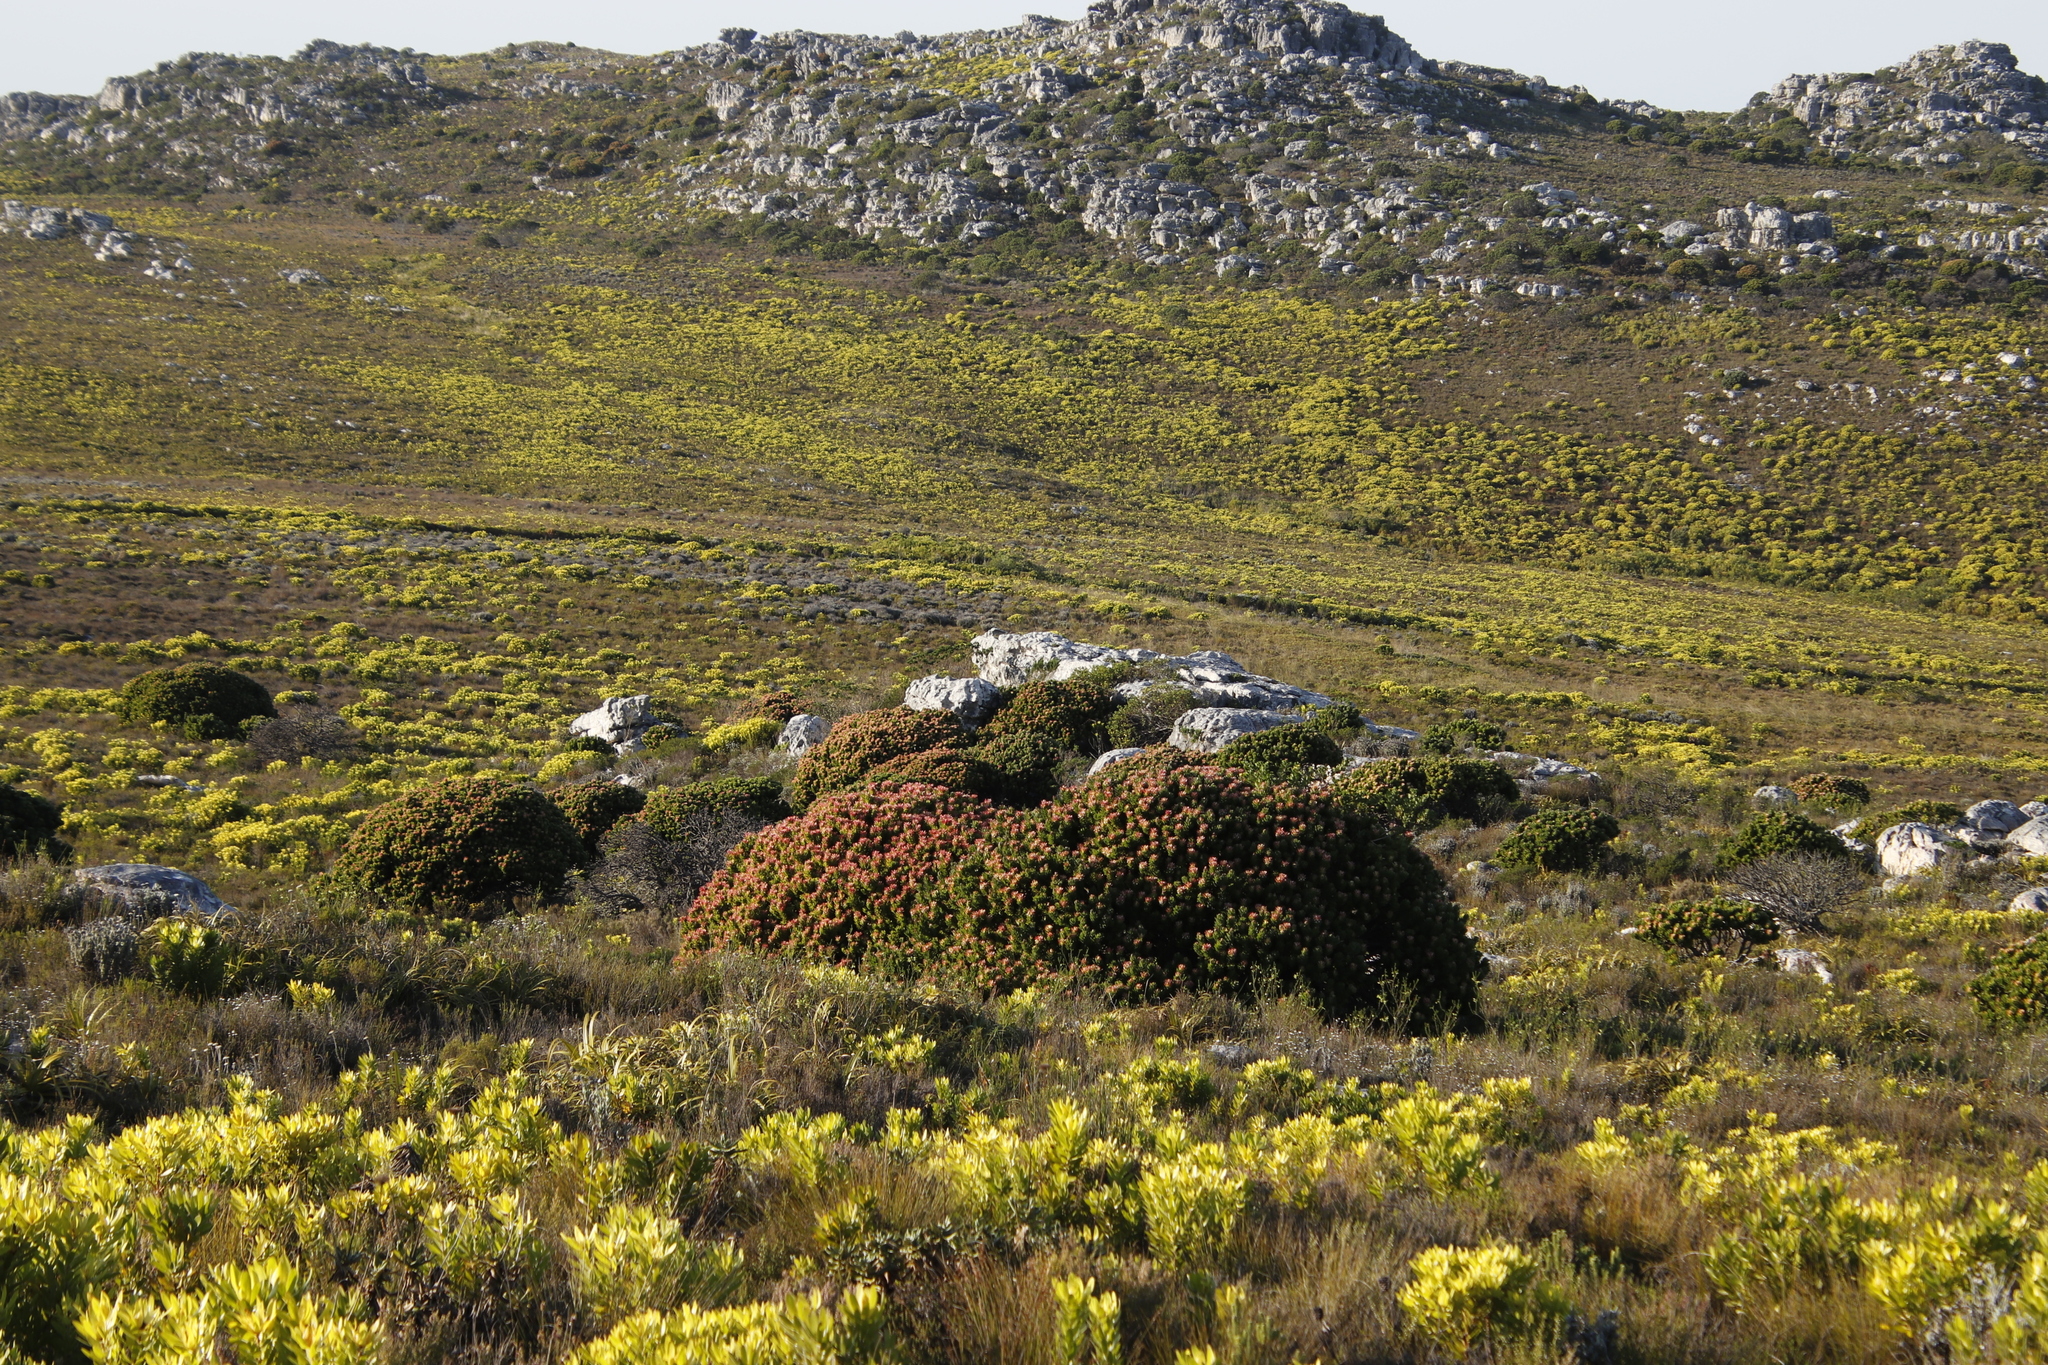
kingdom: Plantae
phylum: Tracheophyta
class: Magnoliopsida
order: Proteales
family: Proteaceae
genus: Mimetes
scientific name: Mimetes fimbriifolius
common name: Fringed bottlebrush
